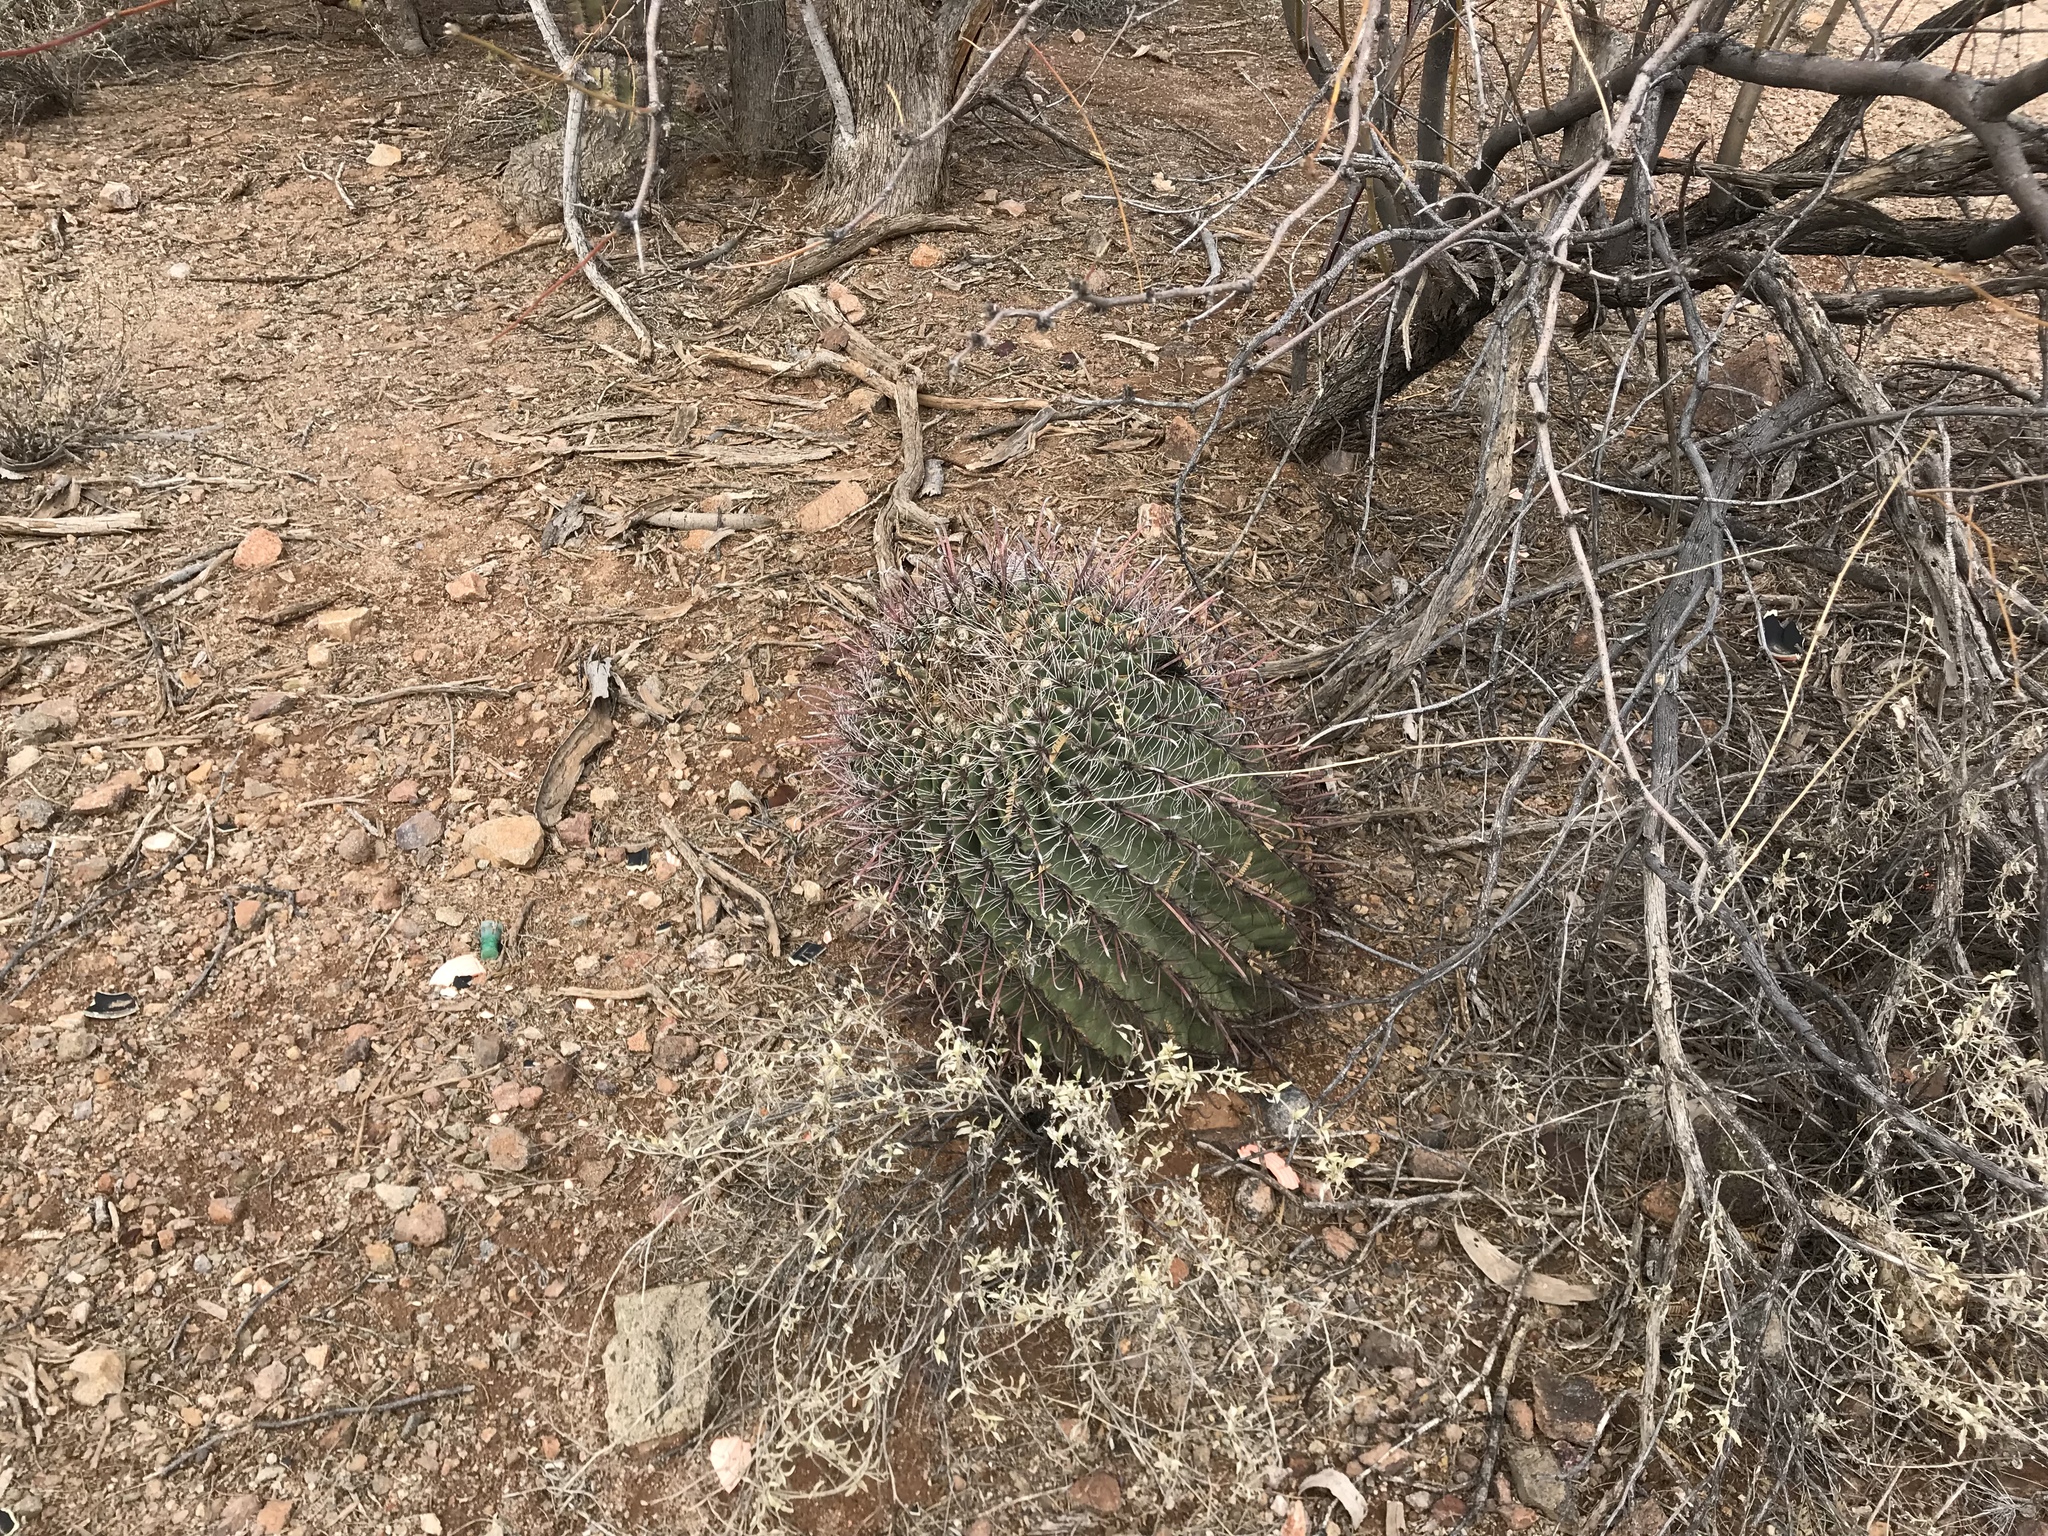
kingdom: Plantae
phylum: Tracheophyta
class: Magnoliopsida
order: Caryophyllales
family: Cactaceae
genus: Ferocactus
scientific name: Ferocactus wislizeni
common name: Candy barrel cactus
